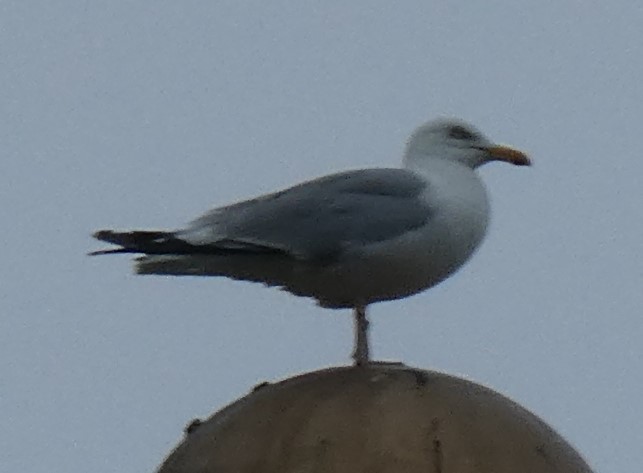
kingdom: Animalia
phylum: Chordata
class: Aves
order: Charadriiformes
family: Laridae
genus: Larus
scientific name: Larus argentatus
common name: Herring gull
